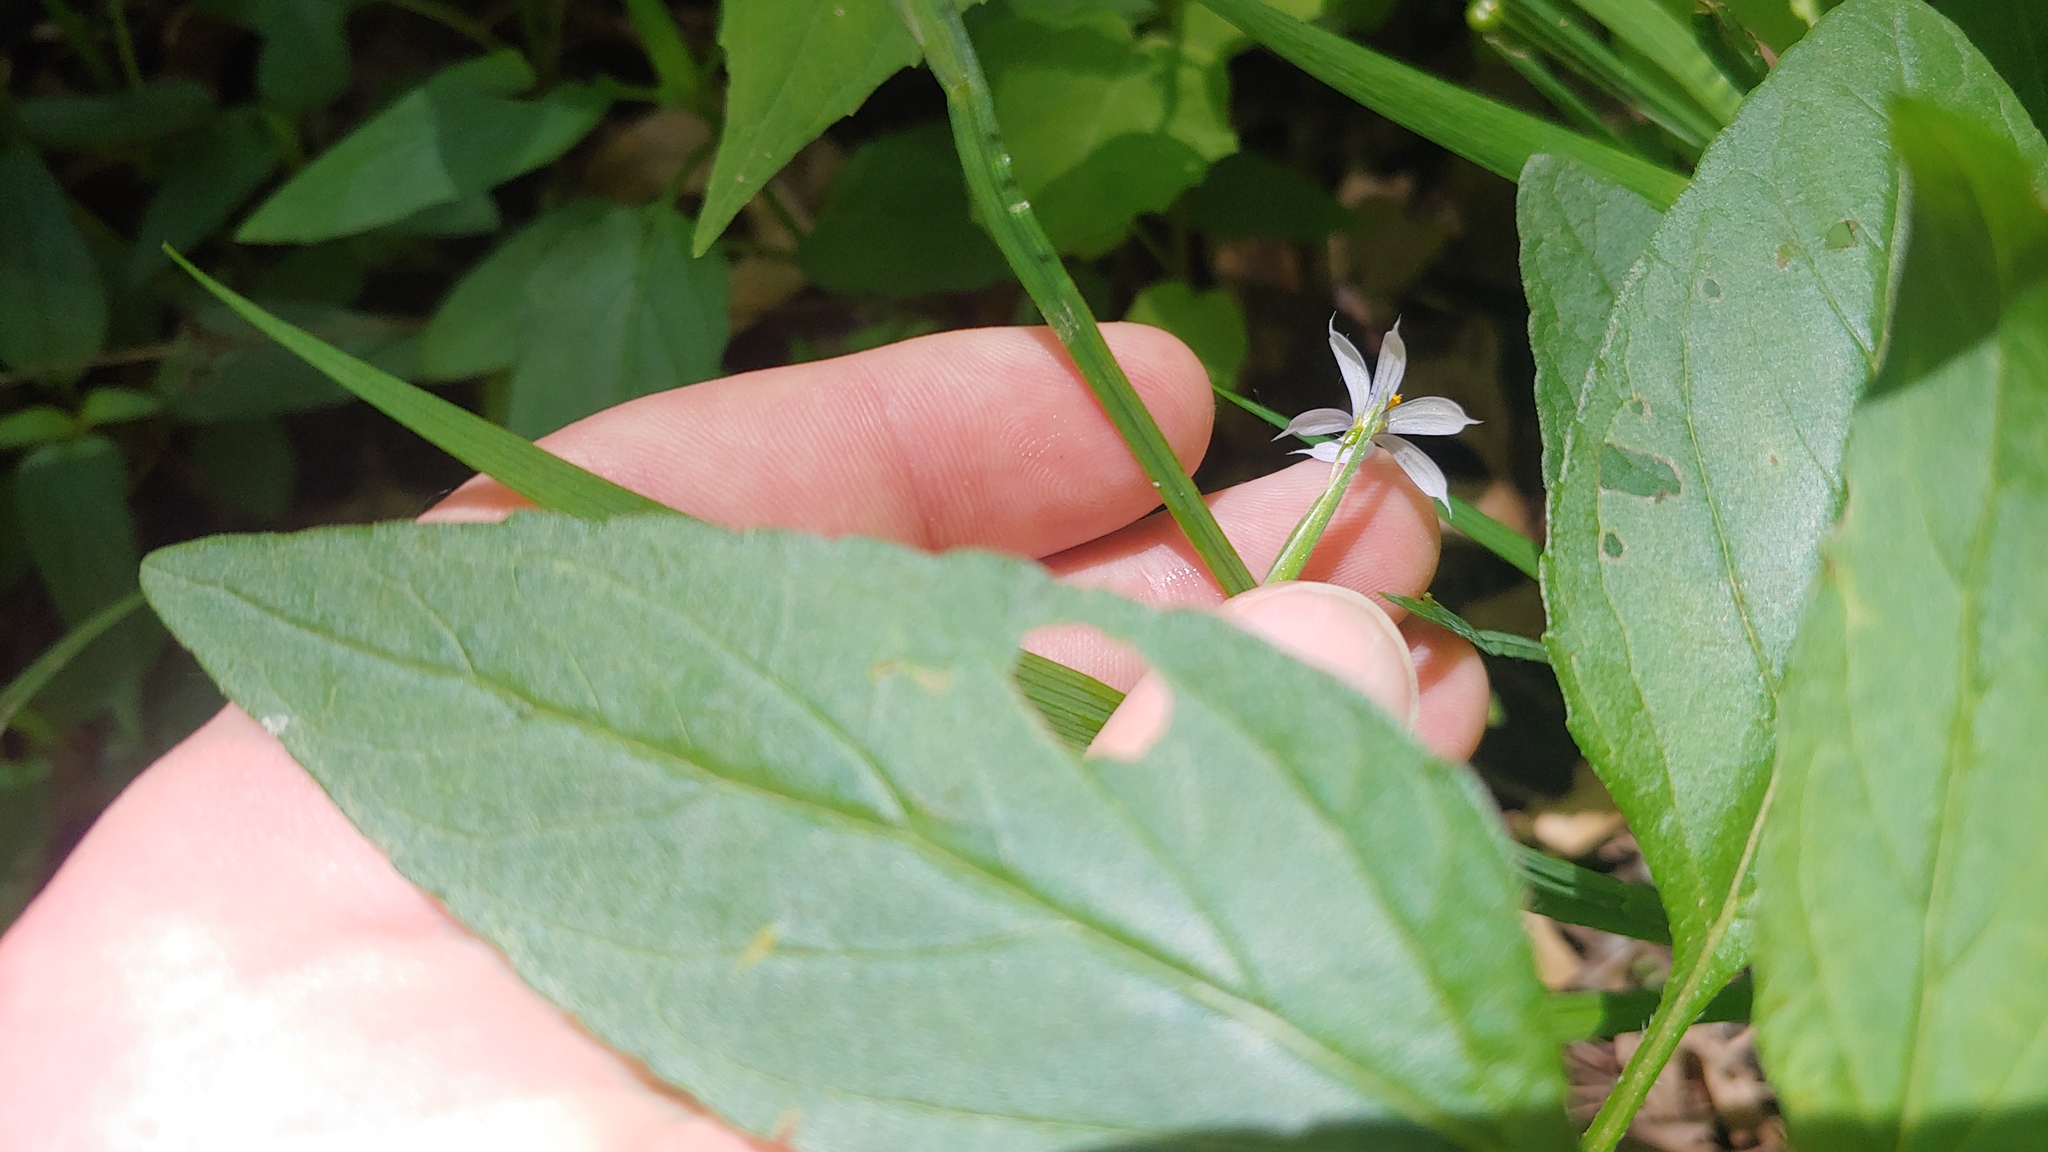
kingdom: Plantae
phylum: Tracheophyta
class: Liliopsida
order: Asparagales
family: Iridaceae
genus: Sisyrinchium
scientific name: Sisyrinchium angustifolium
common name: Narrow-leaf blue-eyed-grass
